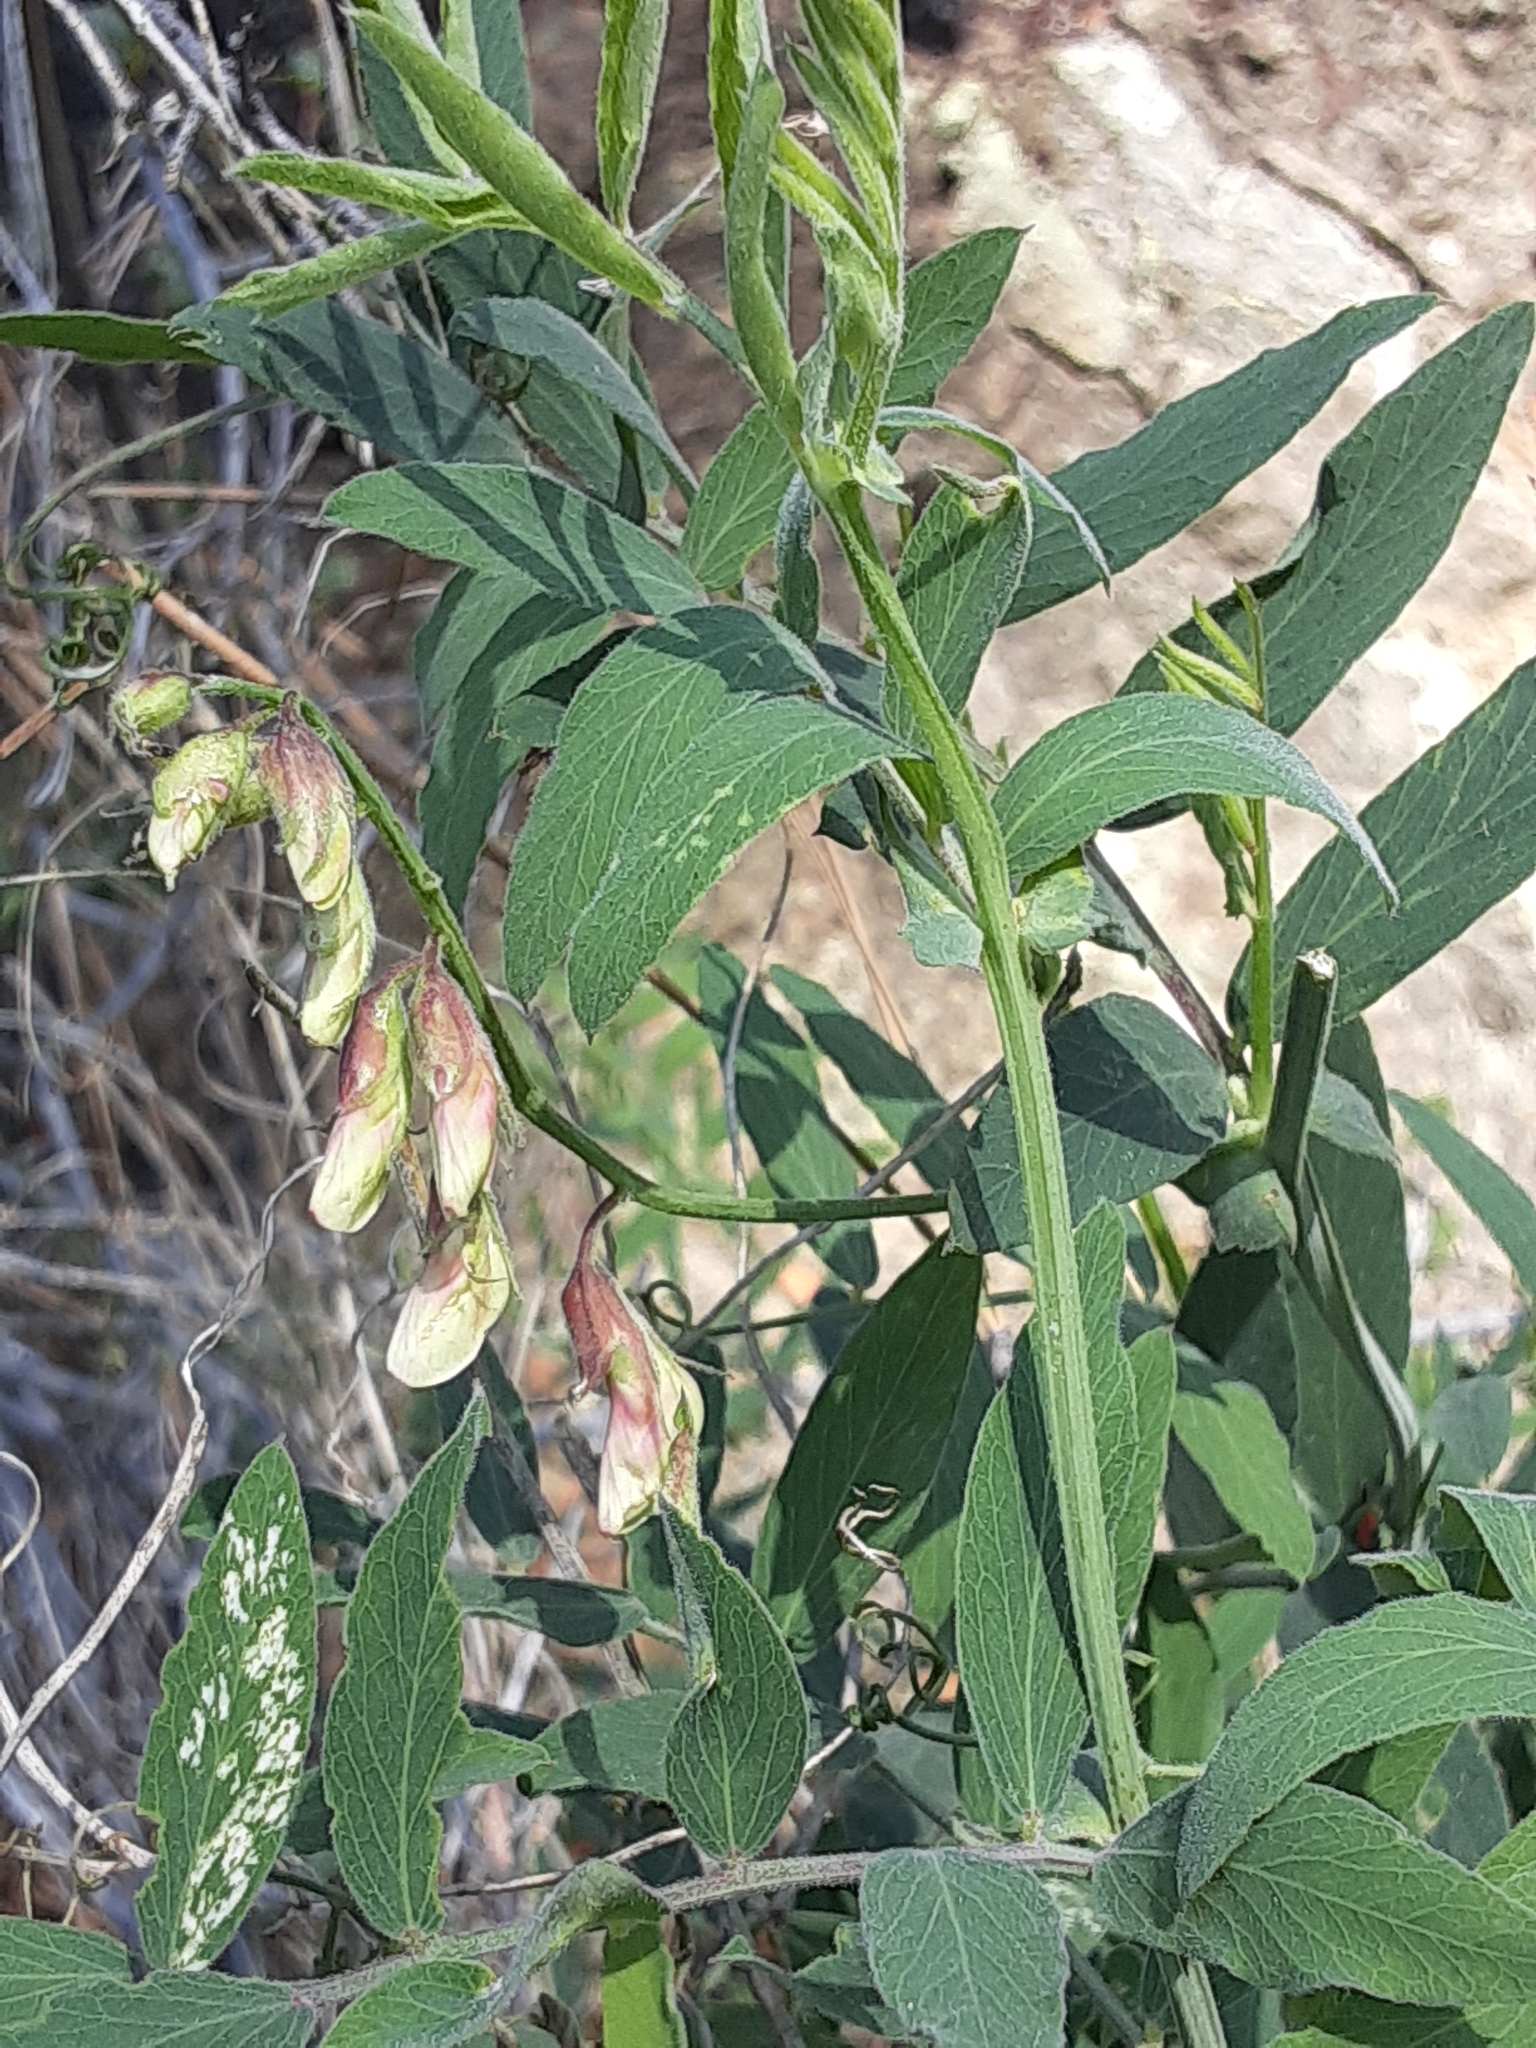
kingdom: Plantae
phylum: Tracheophyta
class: Magnoliopsida
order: Fabales
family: Fabaceae
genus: Lathyrus
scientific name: Lathyrus vestitus
